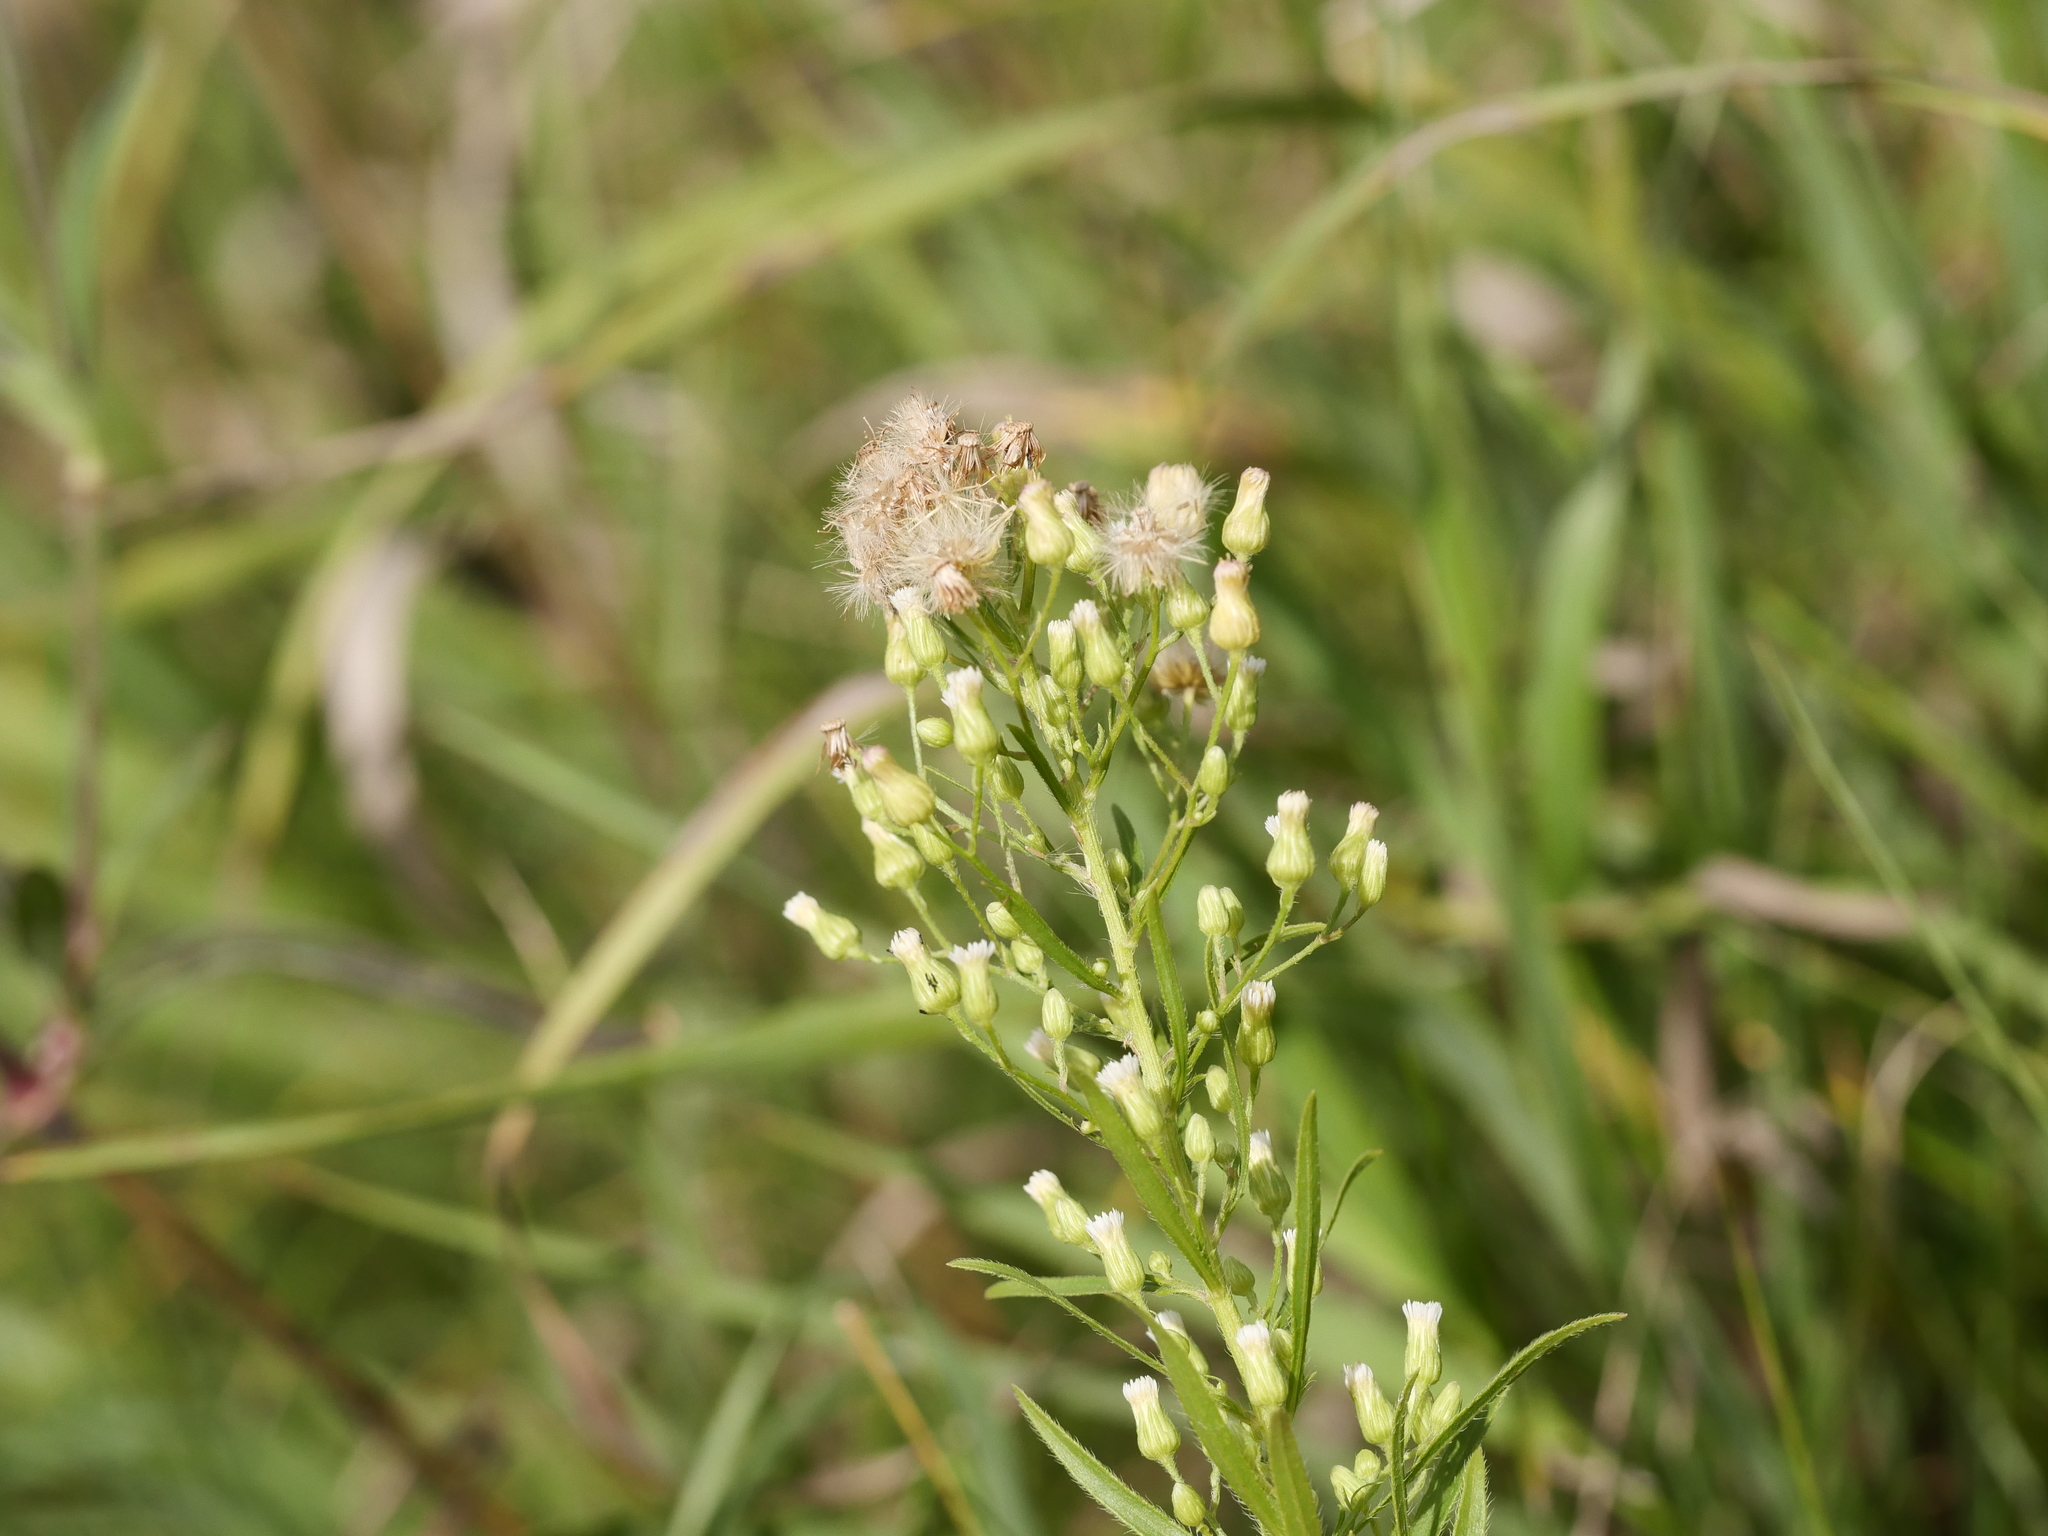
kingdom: Plantae
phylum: Tracheophyta
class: Magnoliopsida
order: Asterales
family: Asteraceae
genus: Erigeron
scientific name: Erigeron canadensis
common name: Canadian fleabane
